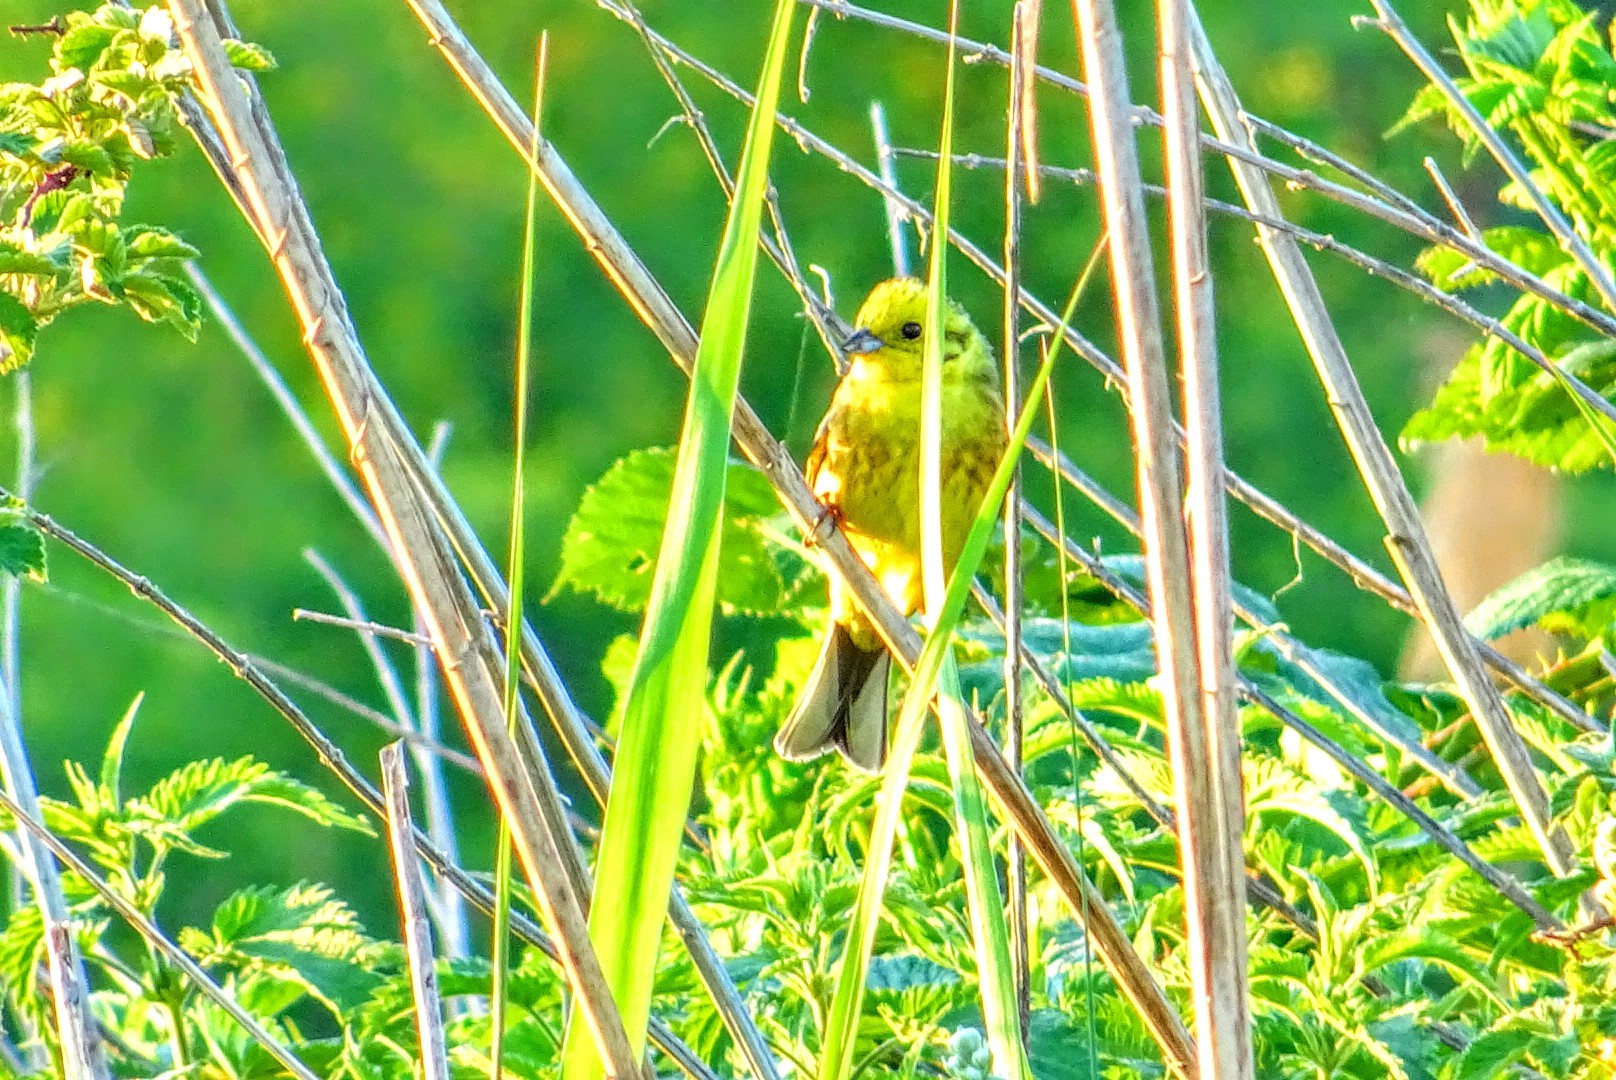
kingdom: Animalia
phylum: Chordata
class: Aves
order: Passeriformes
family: Emberizidae
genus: Emberiza
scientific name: Emberiza citrinella
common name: Yellowhammer
